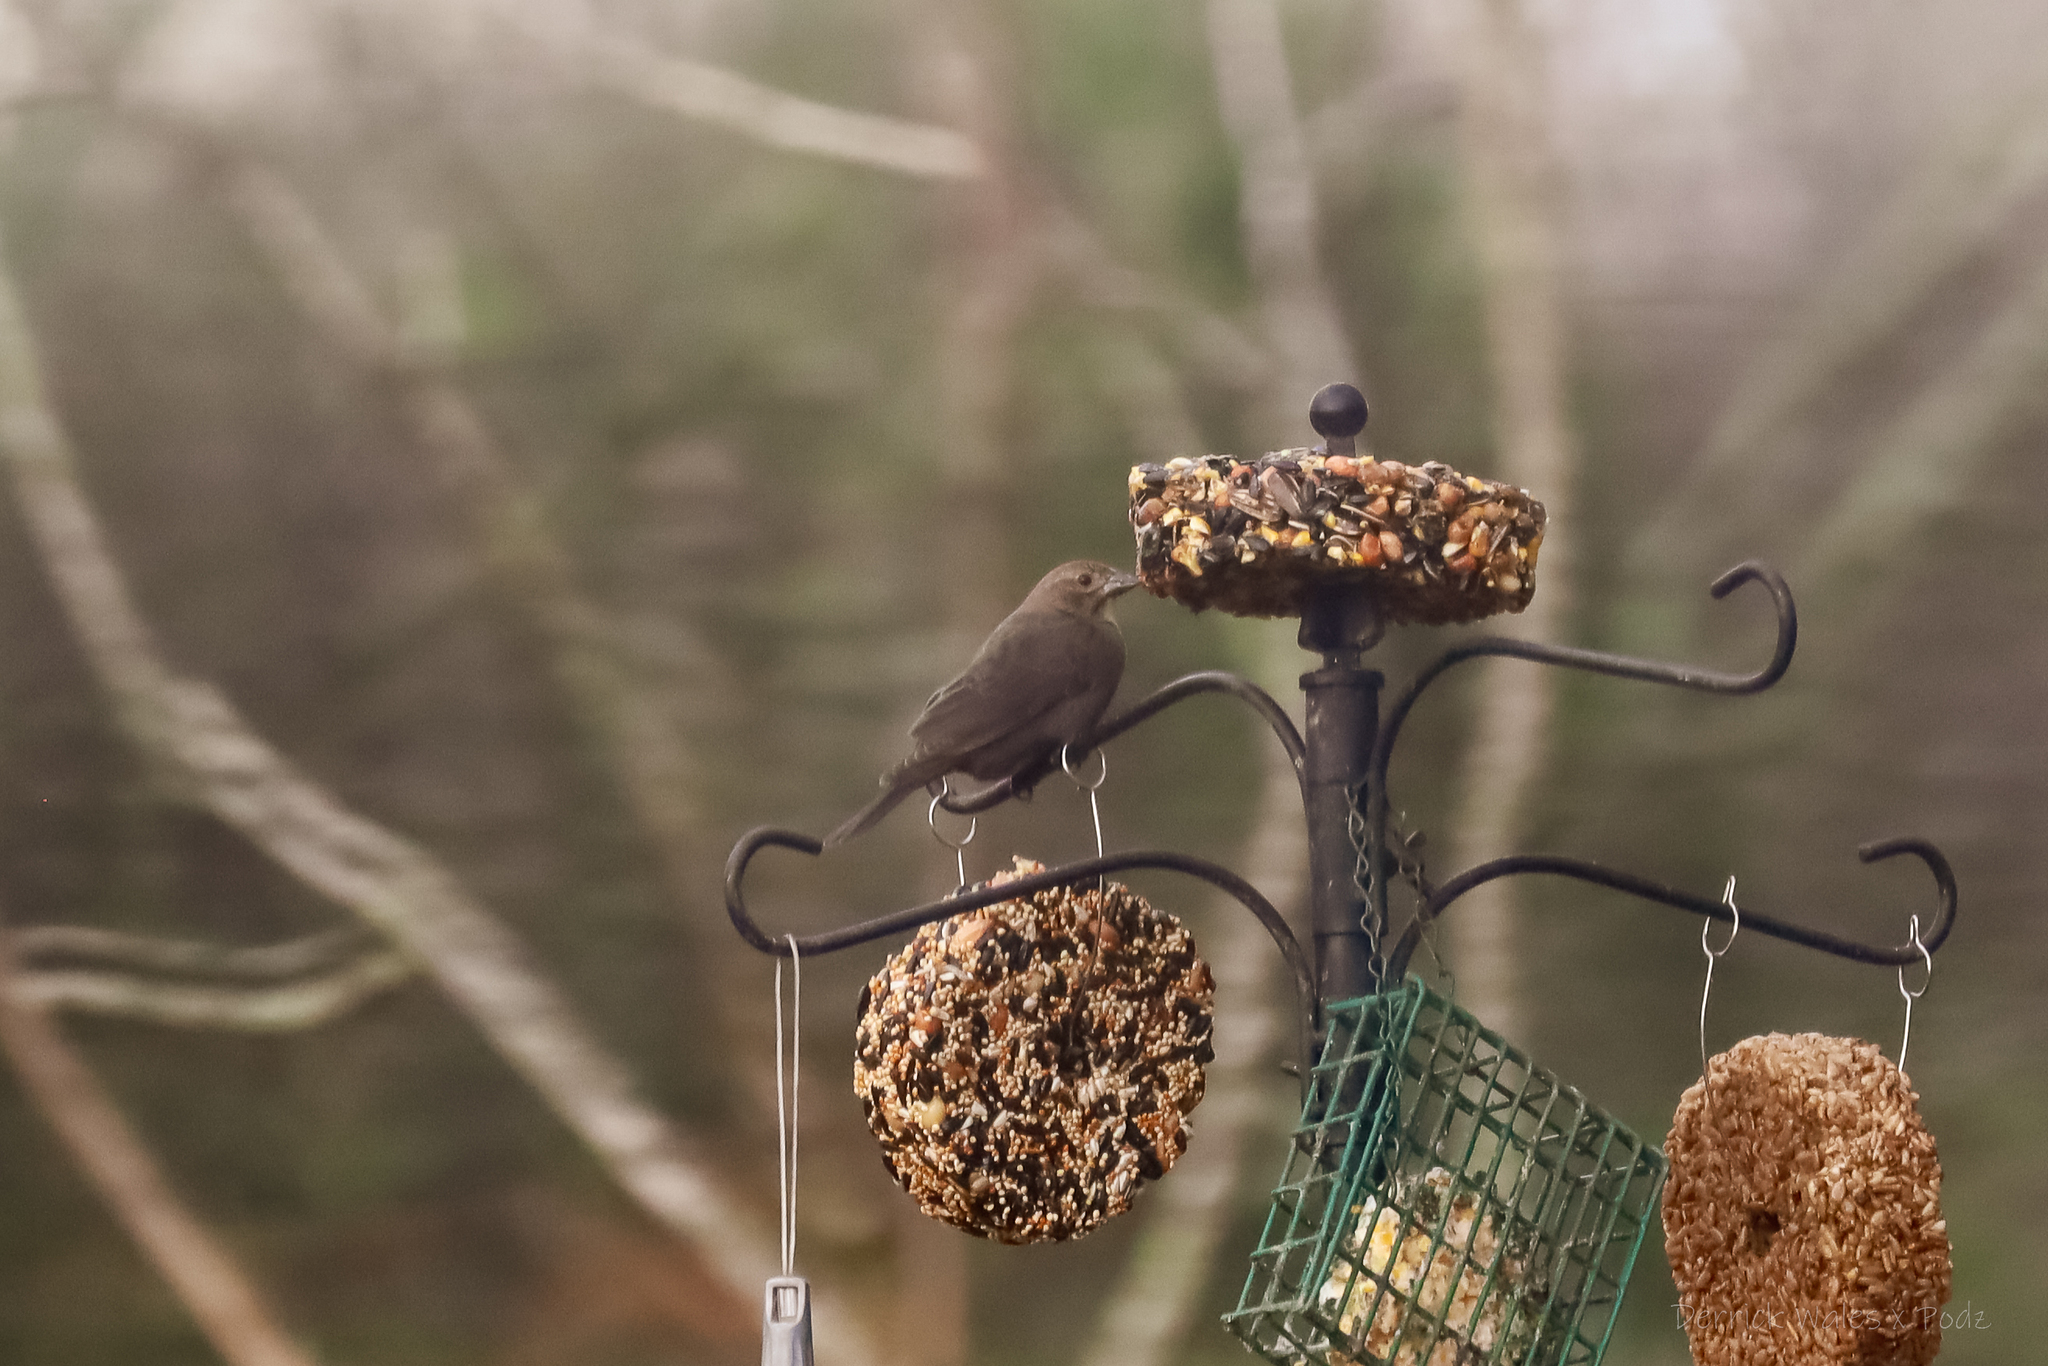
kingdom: Animalia
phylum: Chordata
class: Aves
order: Passeriformes
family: Icteridae
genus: Molothrus
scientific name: Molothrus ater
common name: Brown-headed cowbird
